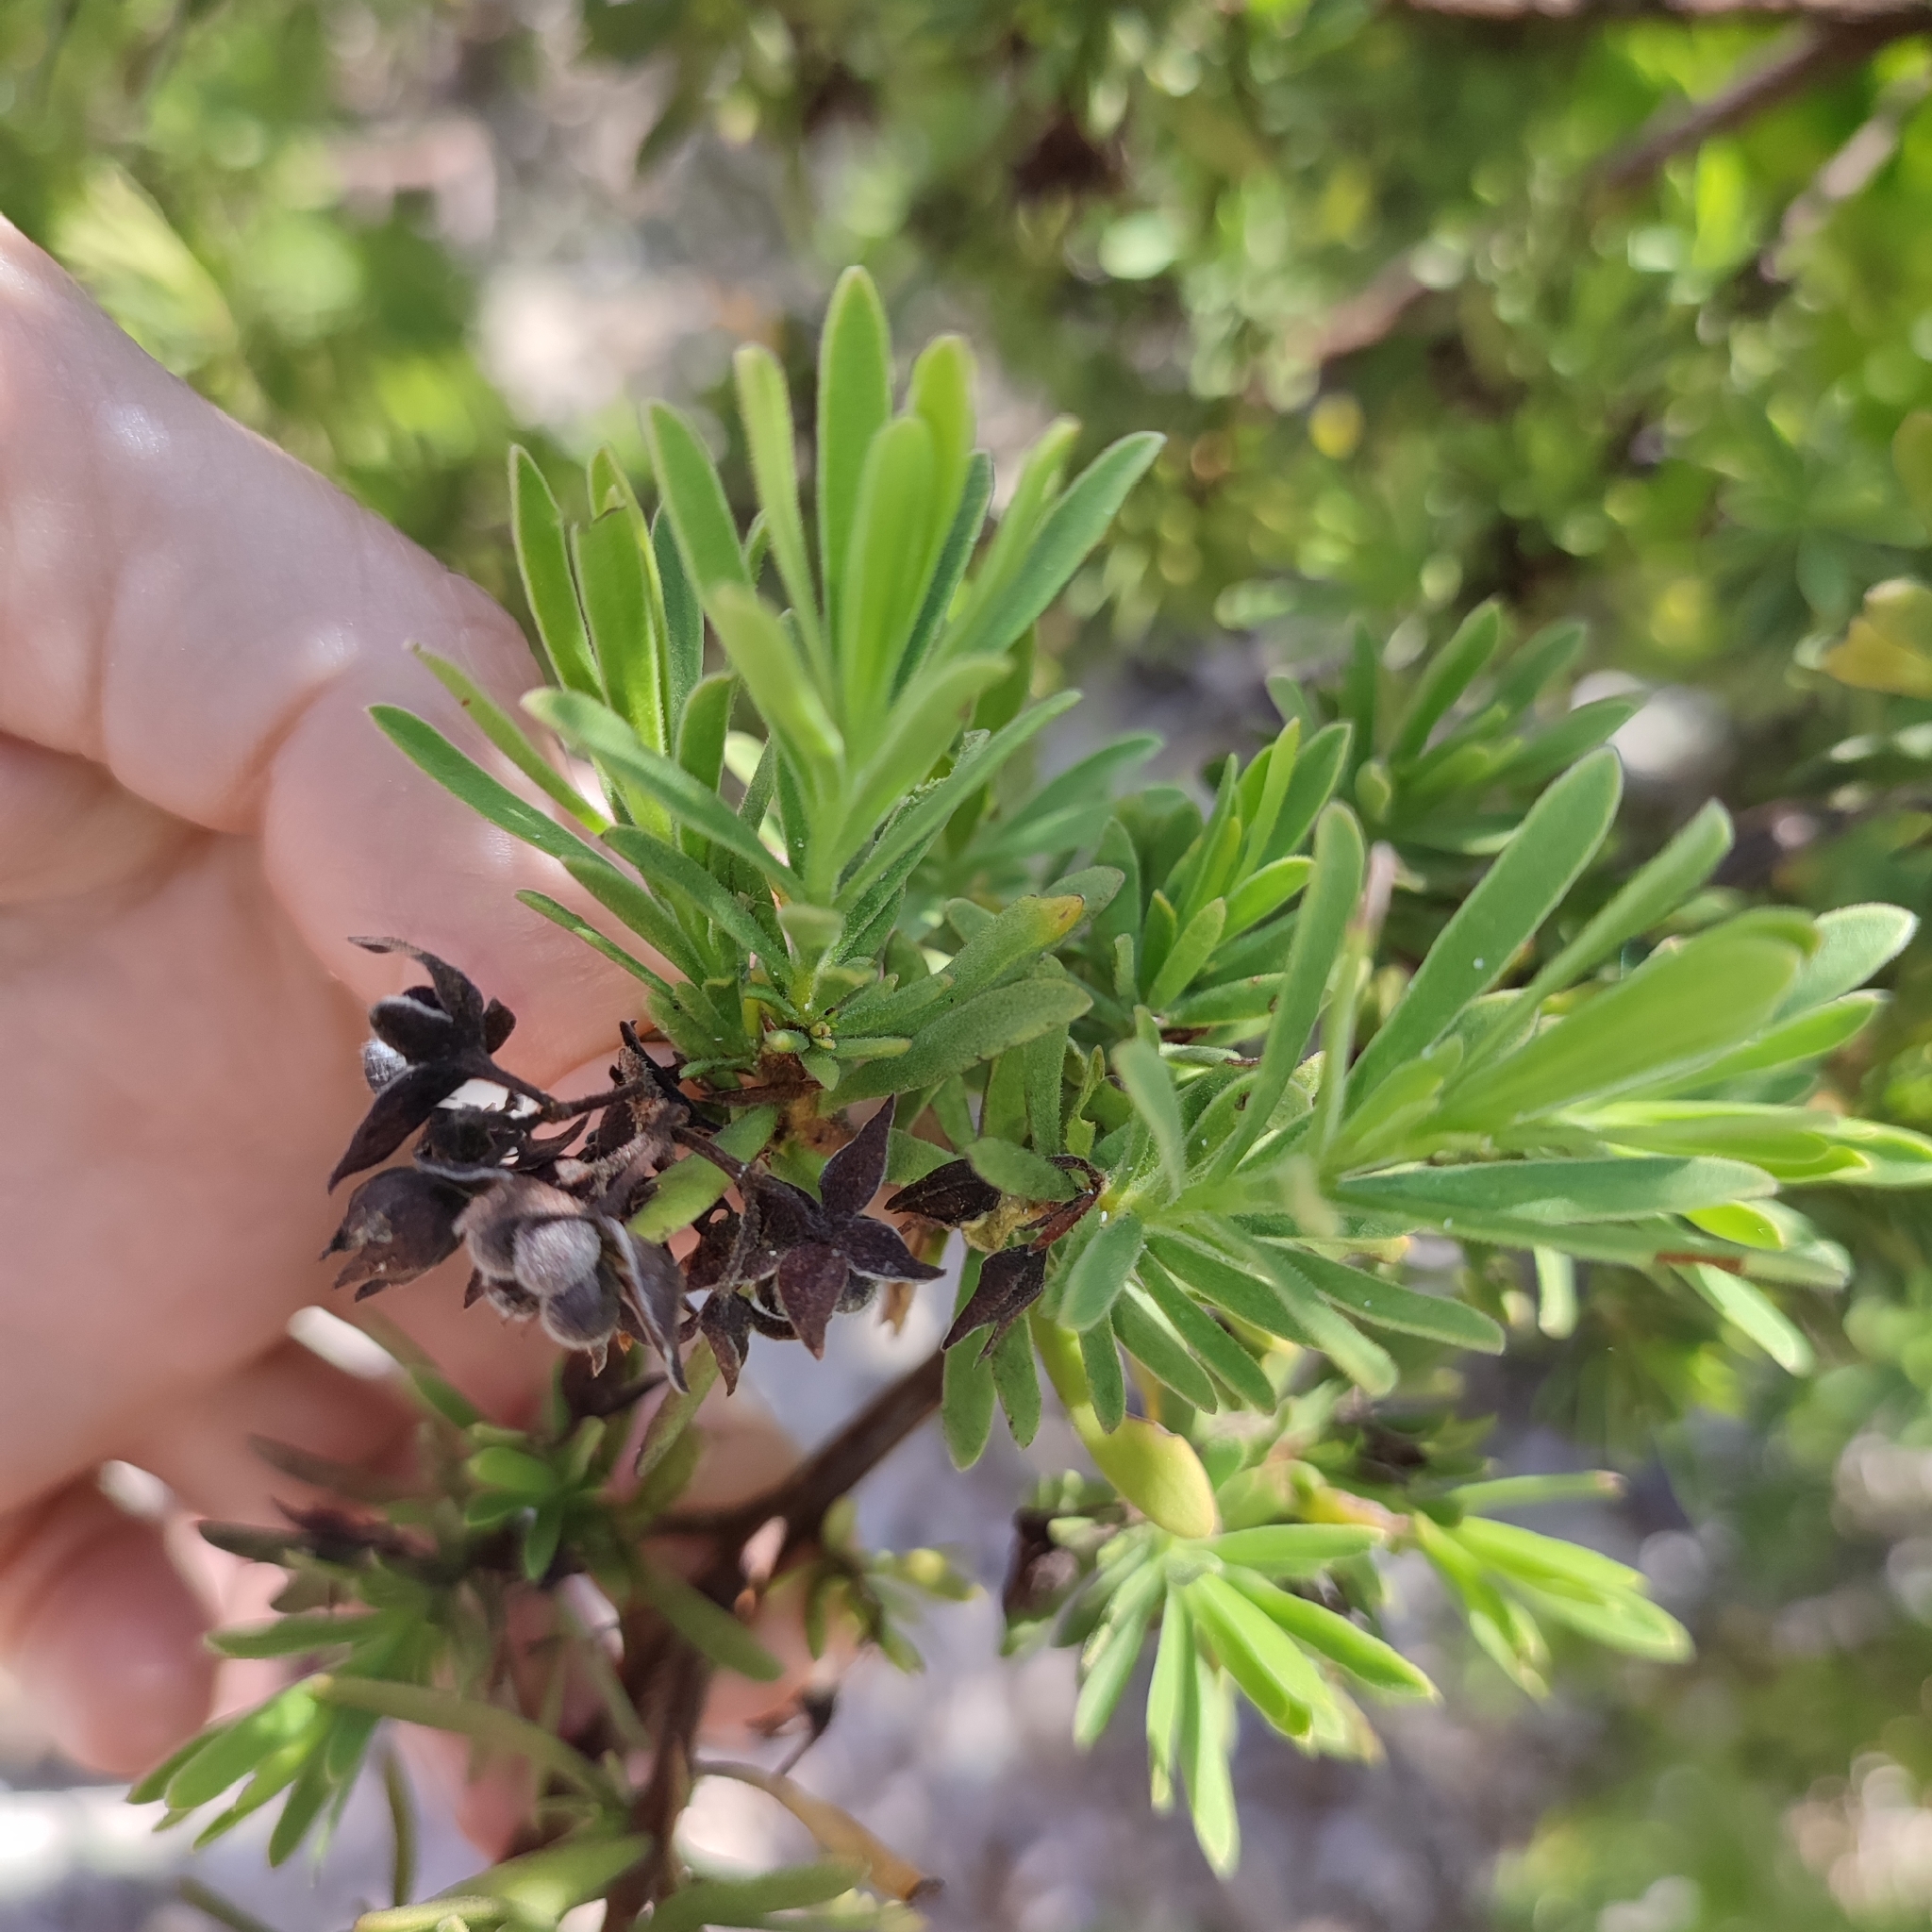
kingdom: Plantae
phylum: Tracheophyta
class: Magnoliopsida
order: Fabales
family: Surianaceae
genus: Suriana
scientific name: Suriana maritima
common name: Bay-cedar
